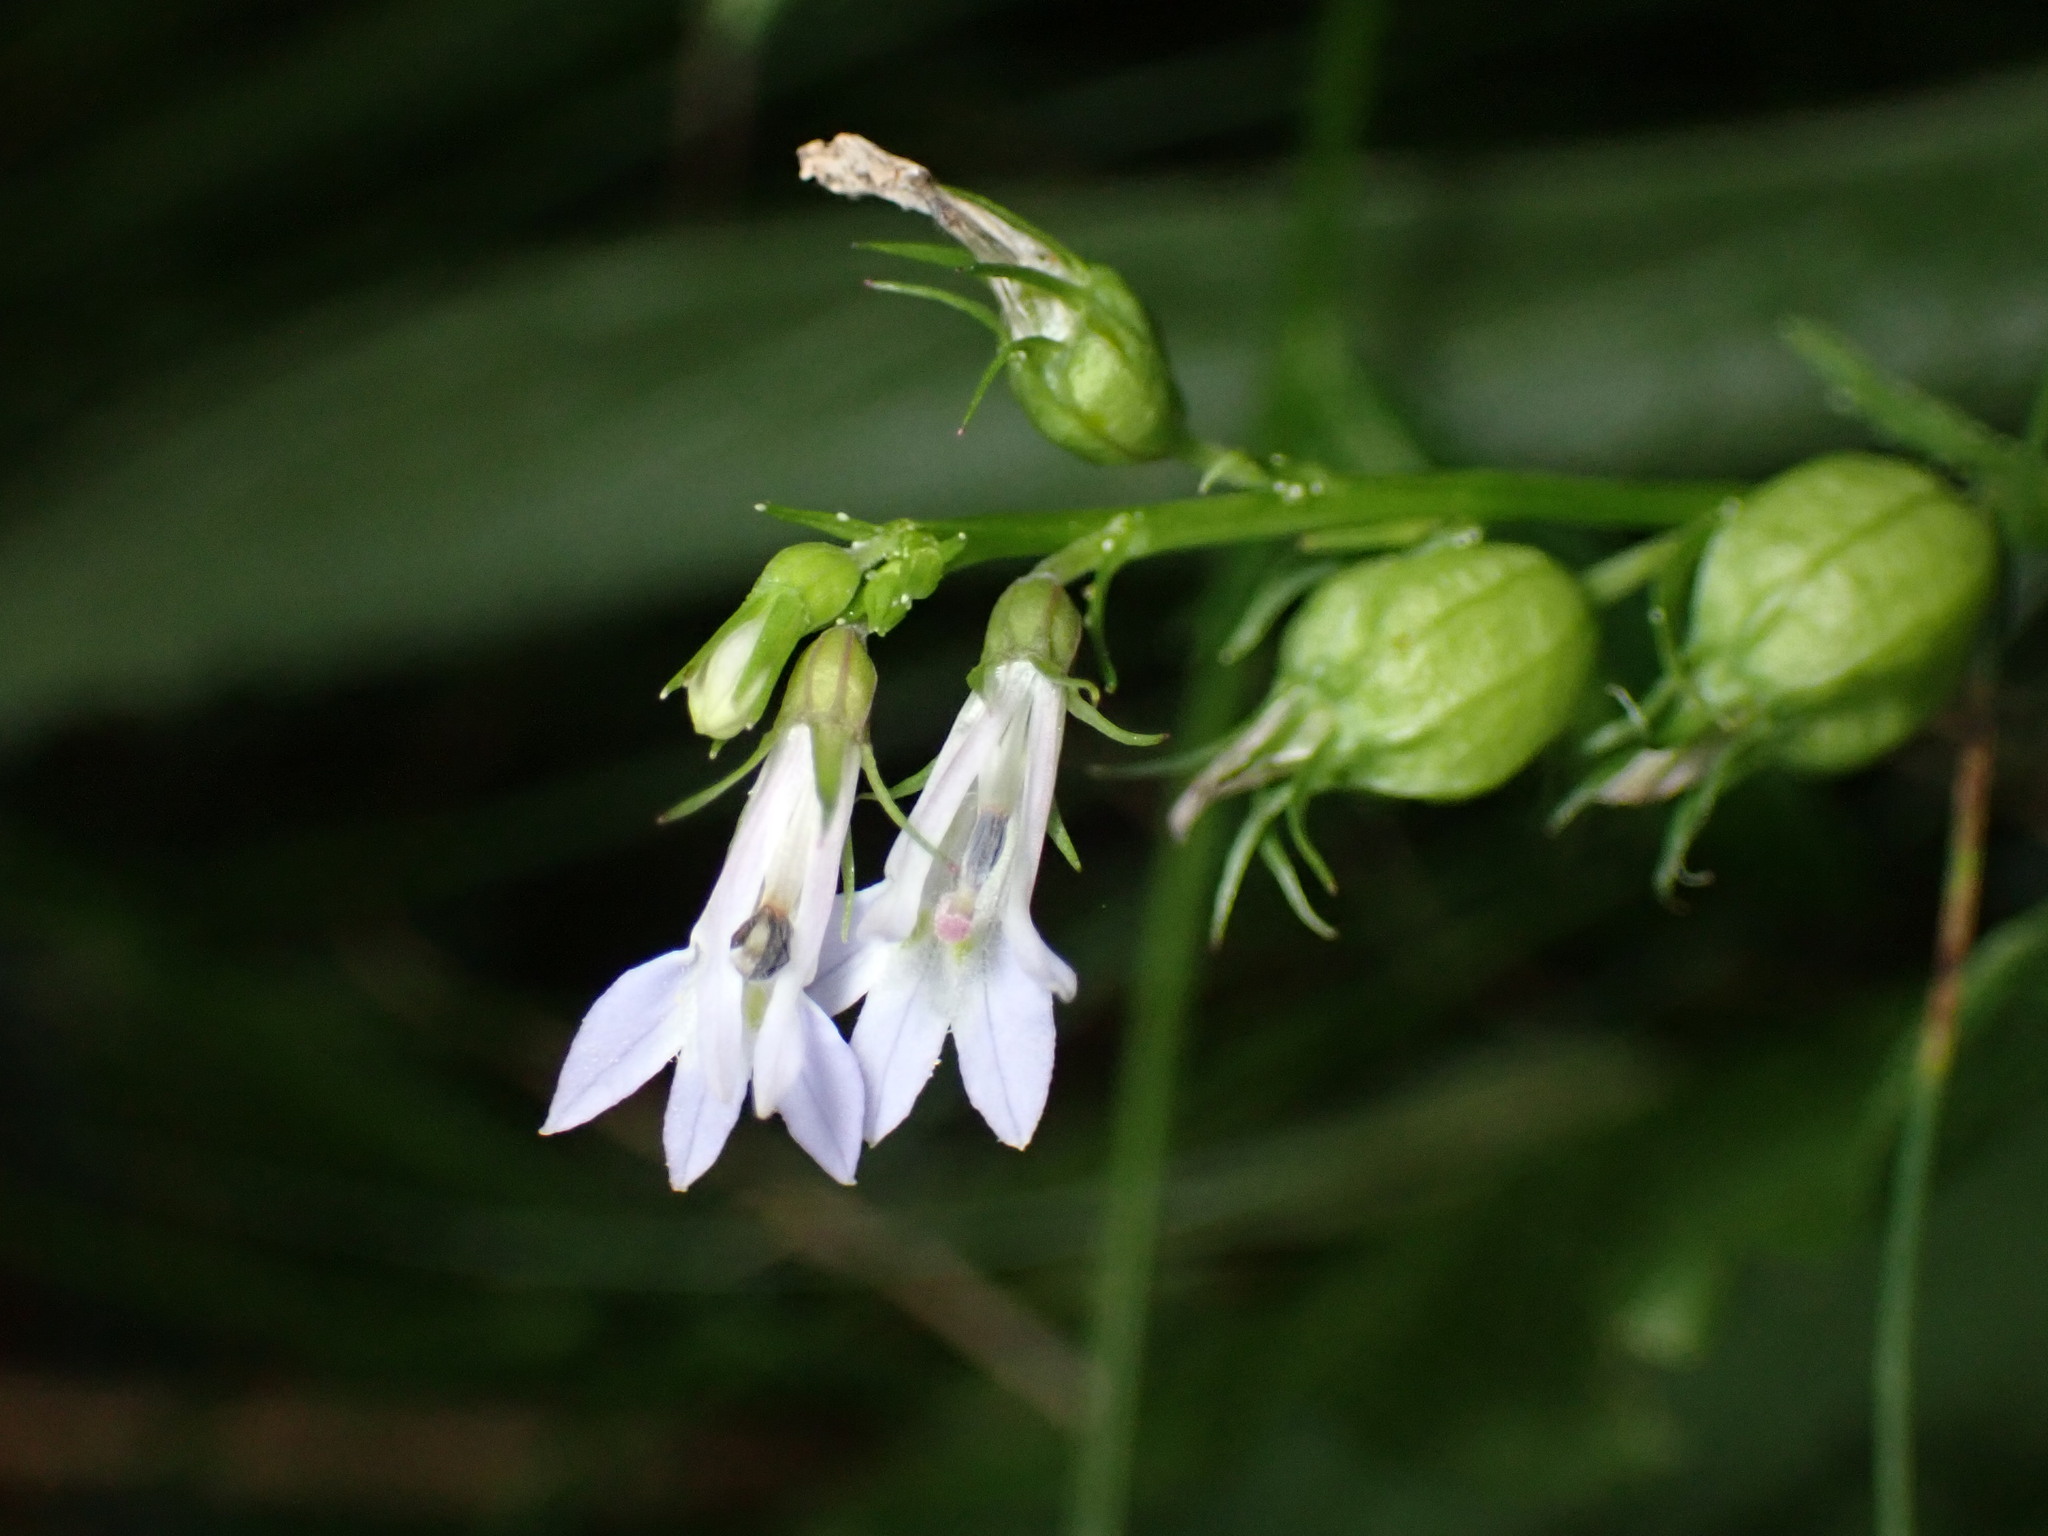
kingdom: Plantae
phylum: Tracheophyta
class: Magnoliopsida
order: Asterales
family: Campanulaceae
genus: Lobelia
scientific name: Lobelia inflata
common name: Indian tobacco
